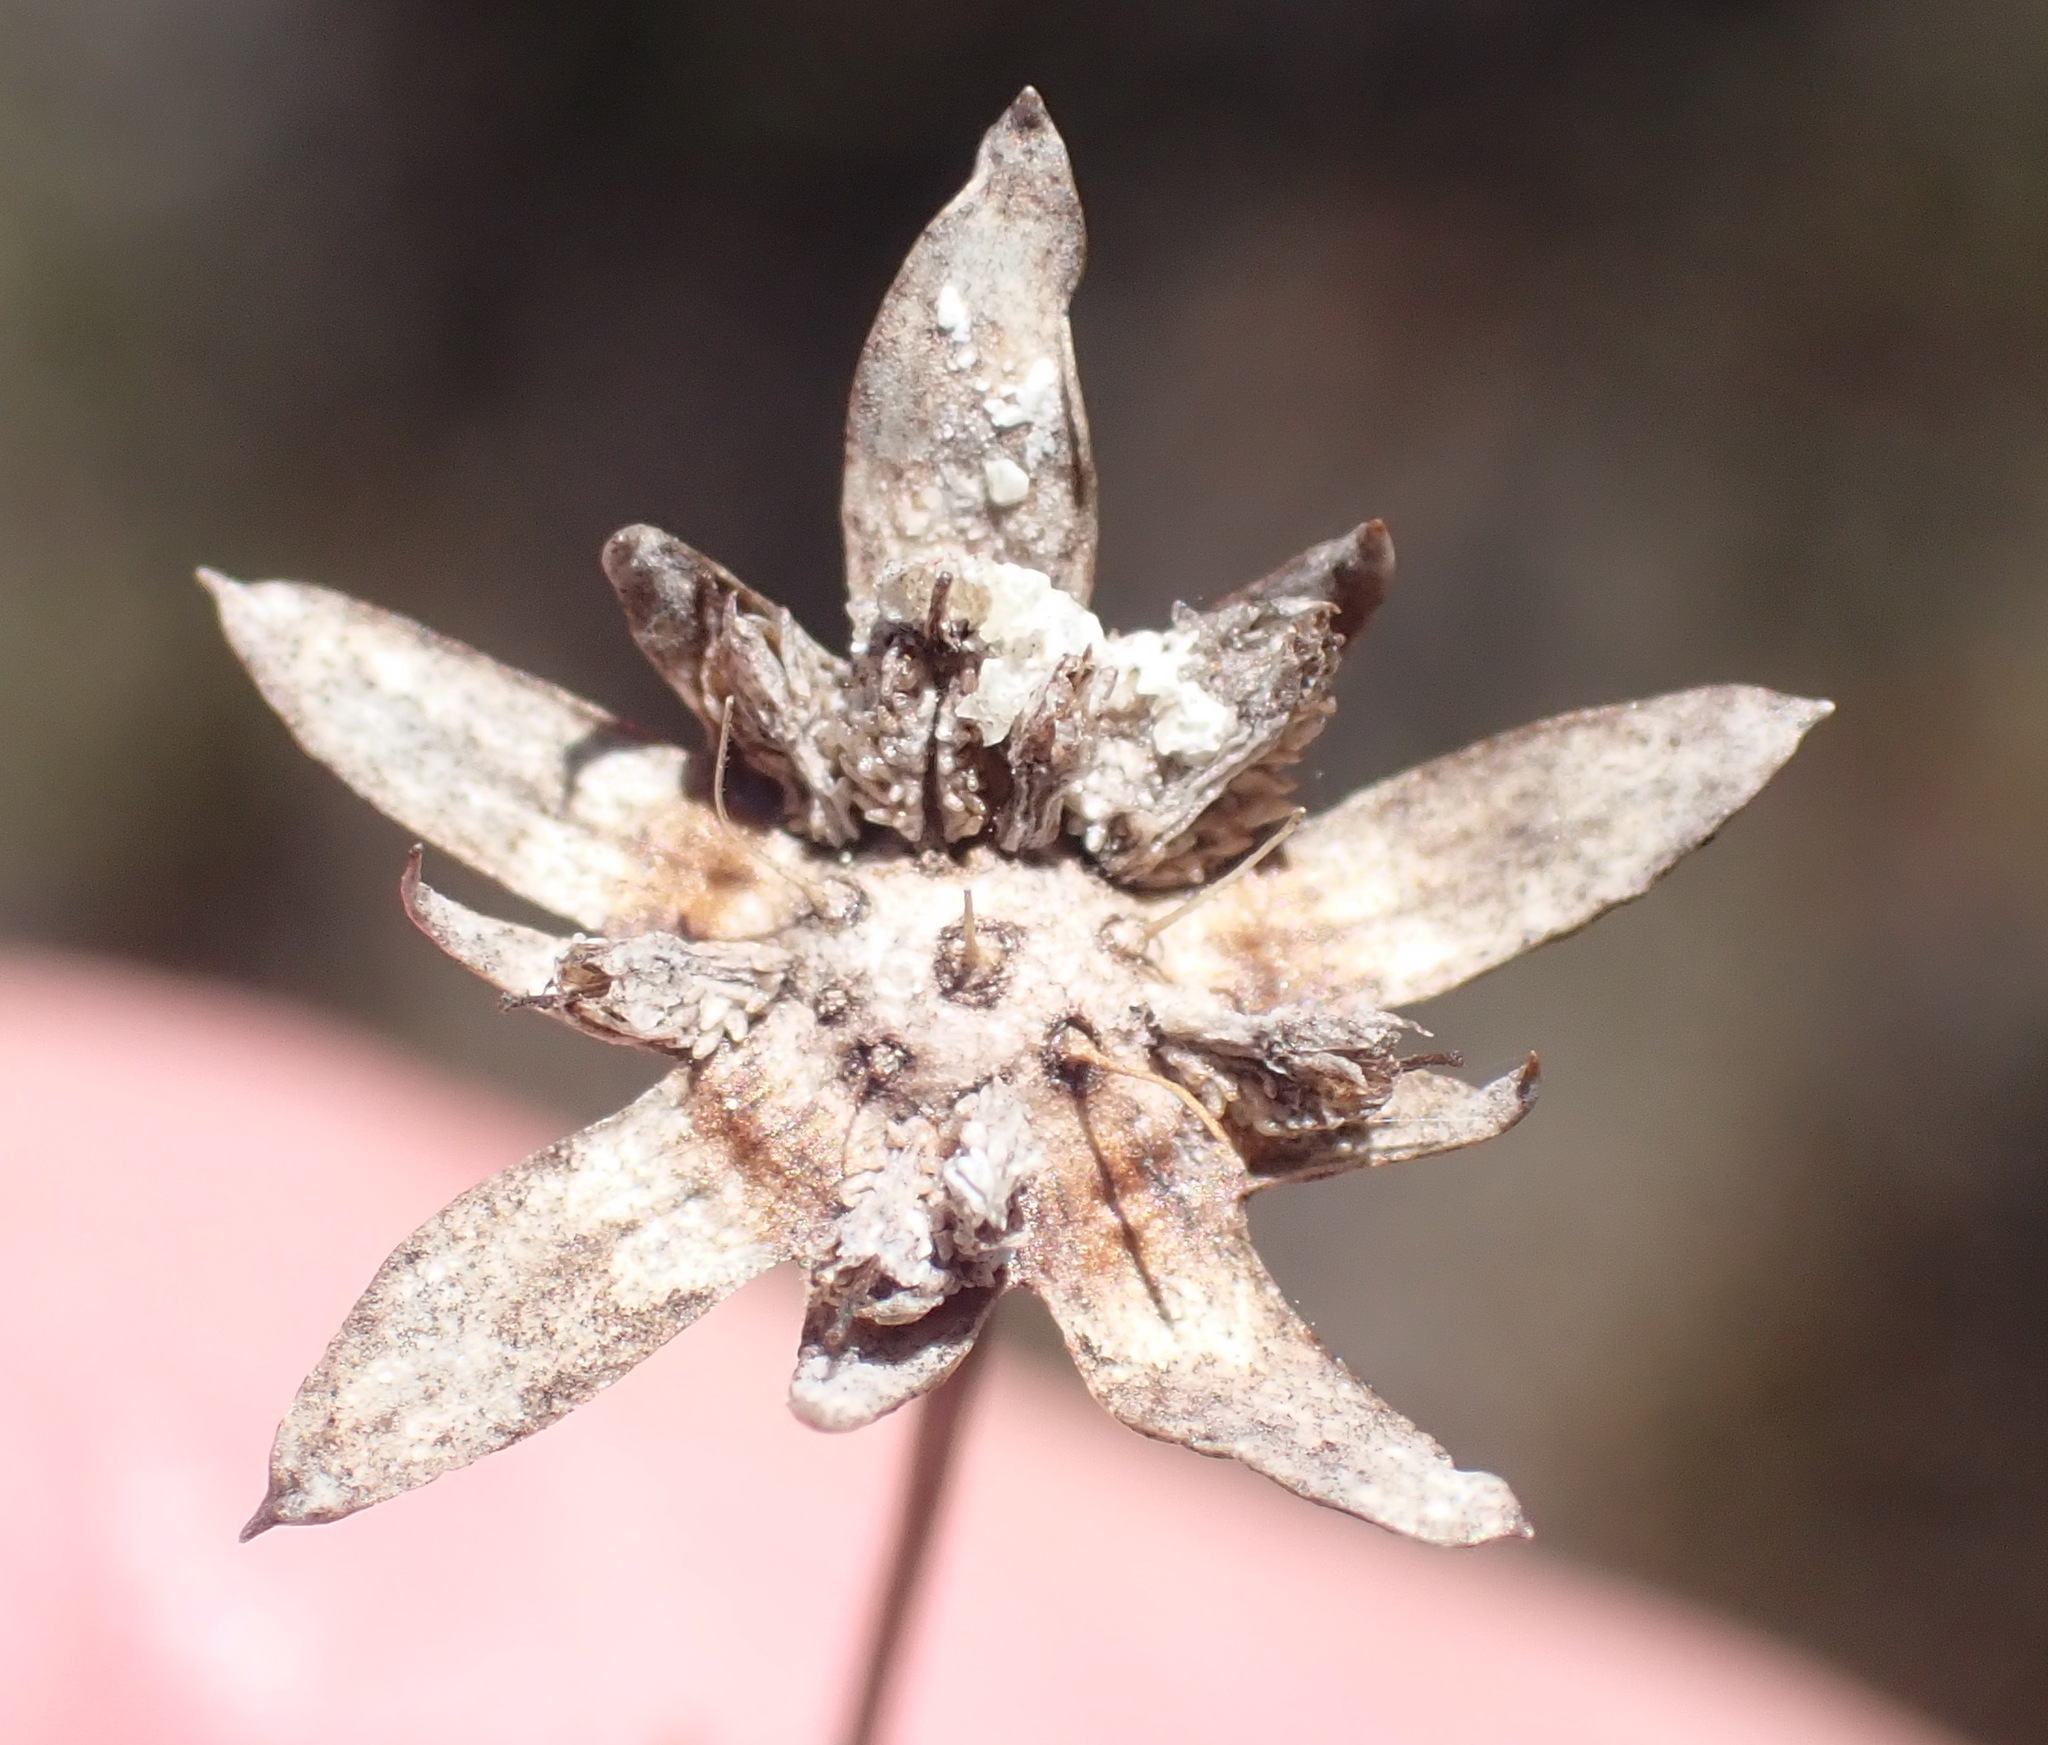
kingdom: Plantae
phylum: Tracheophyta
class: Magnoliopsida
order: Apiales
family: Apiaceae
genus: Alepidea
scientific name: Alepidea capensis
